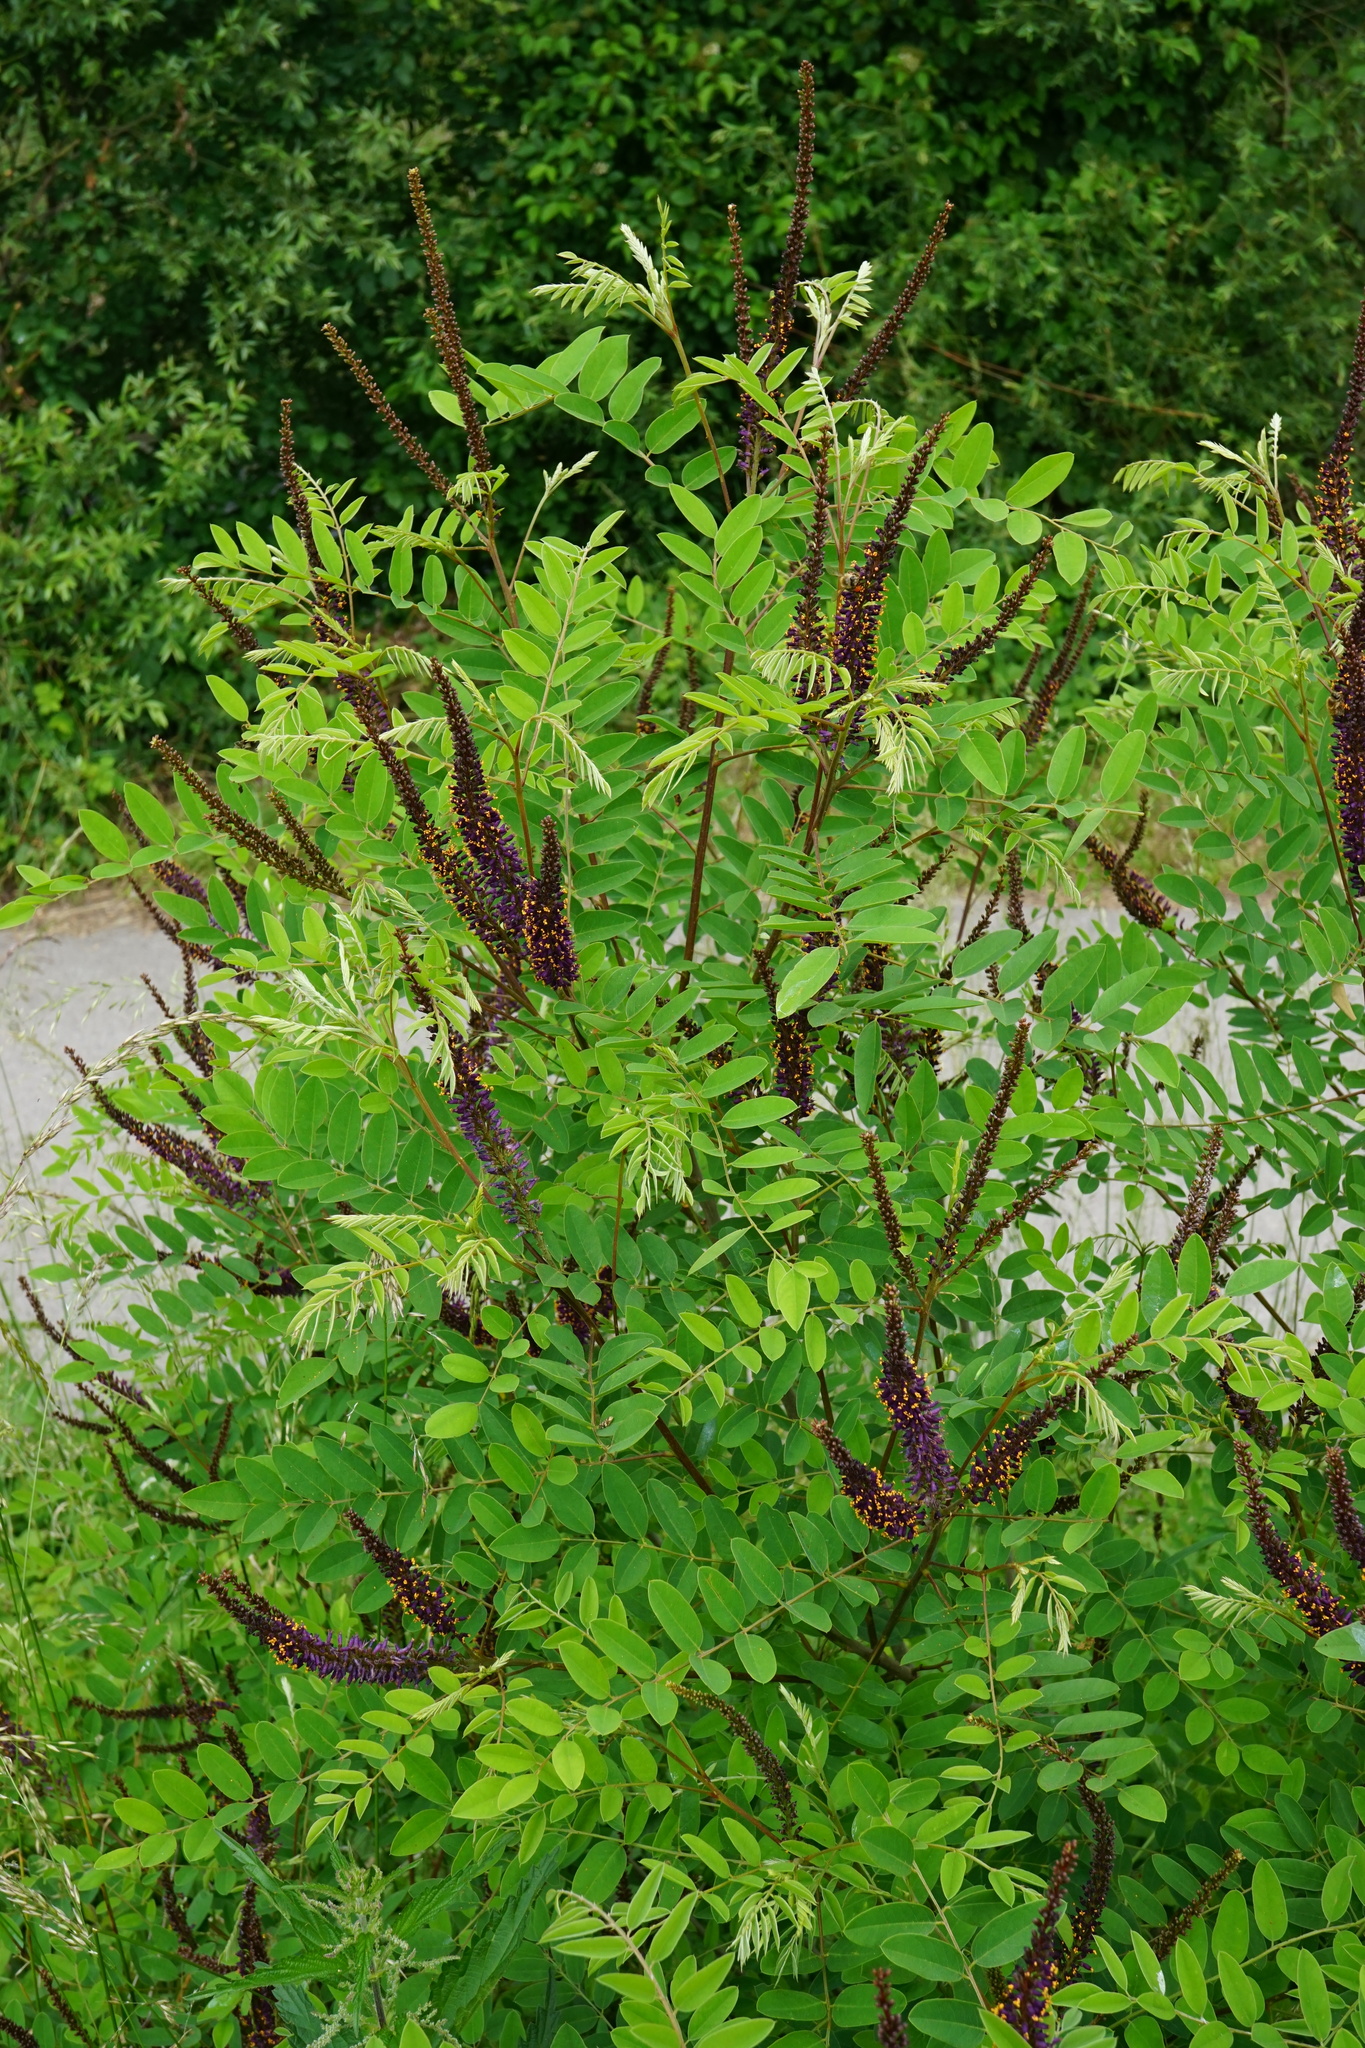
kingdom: Plantae
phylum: Tracheophyta
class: Magnoliopsida
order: Fabales
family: Fabaceae
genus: Amorpha
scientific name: Amorpha fruticosa
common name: False indigo
